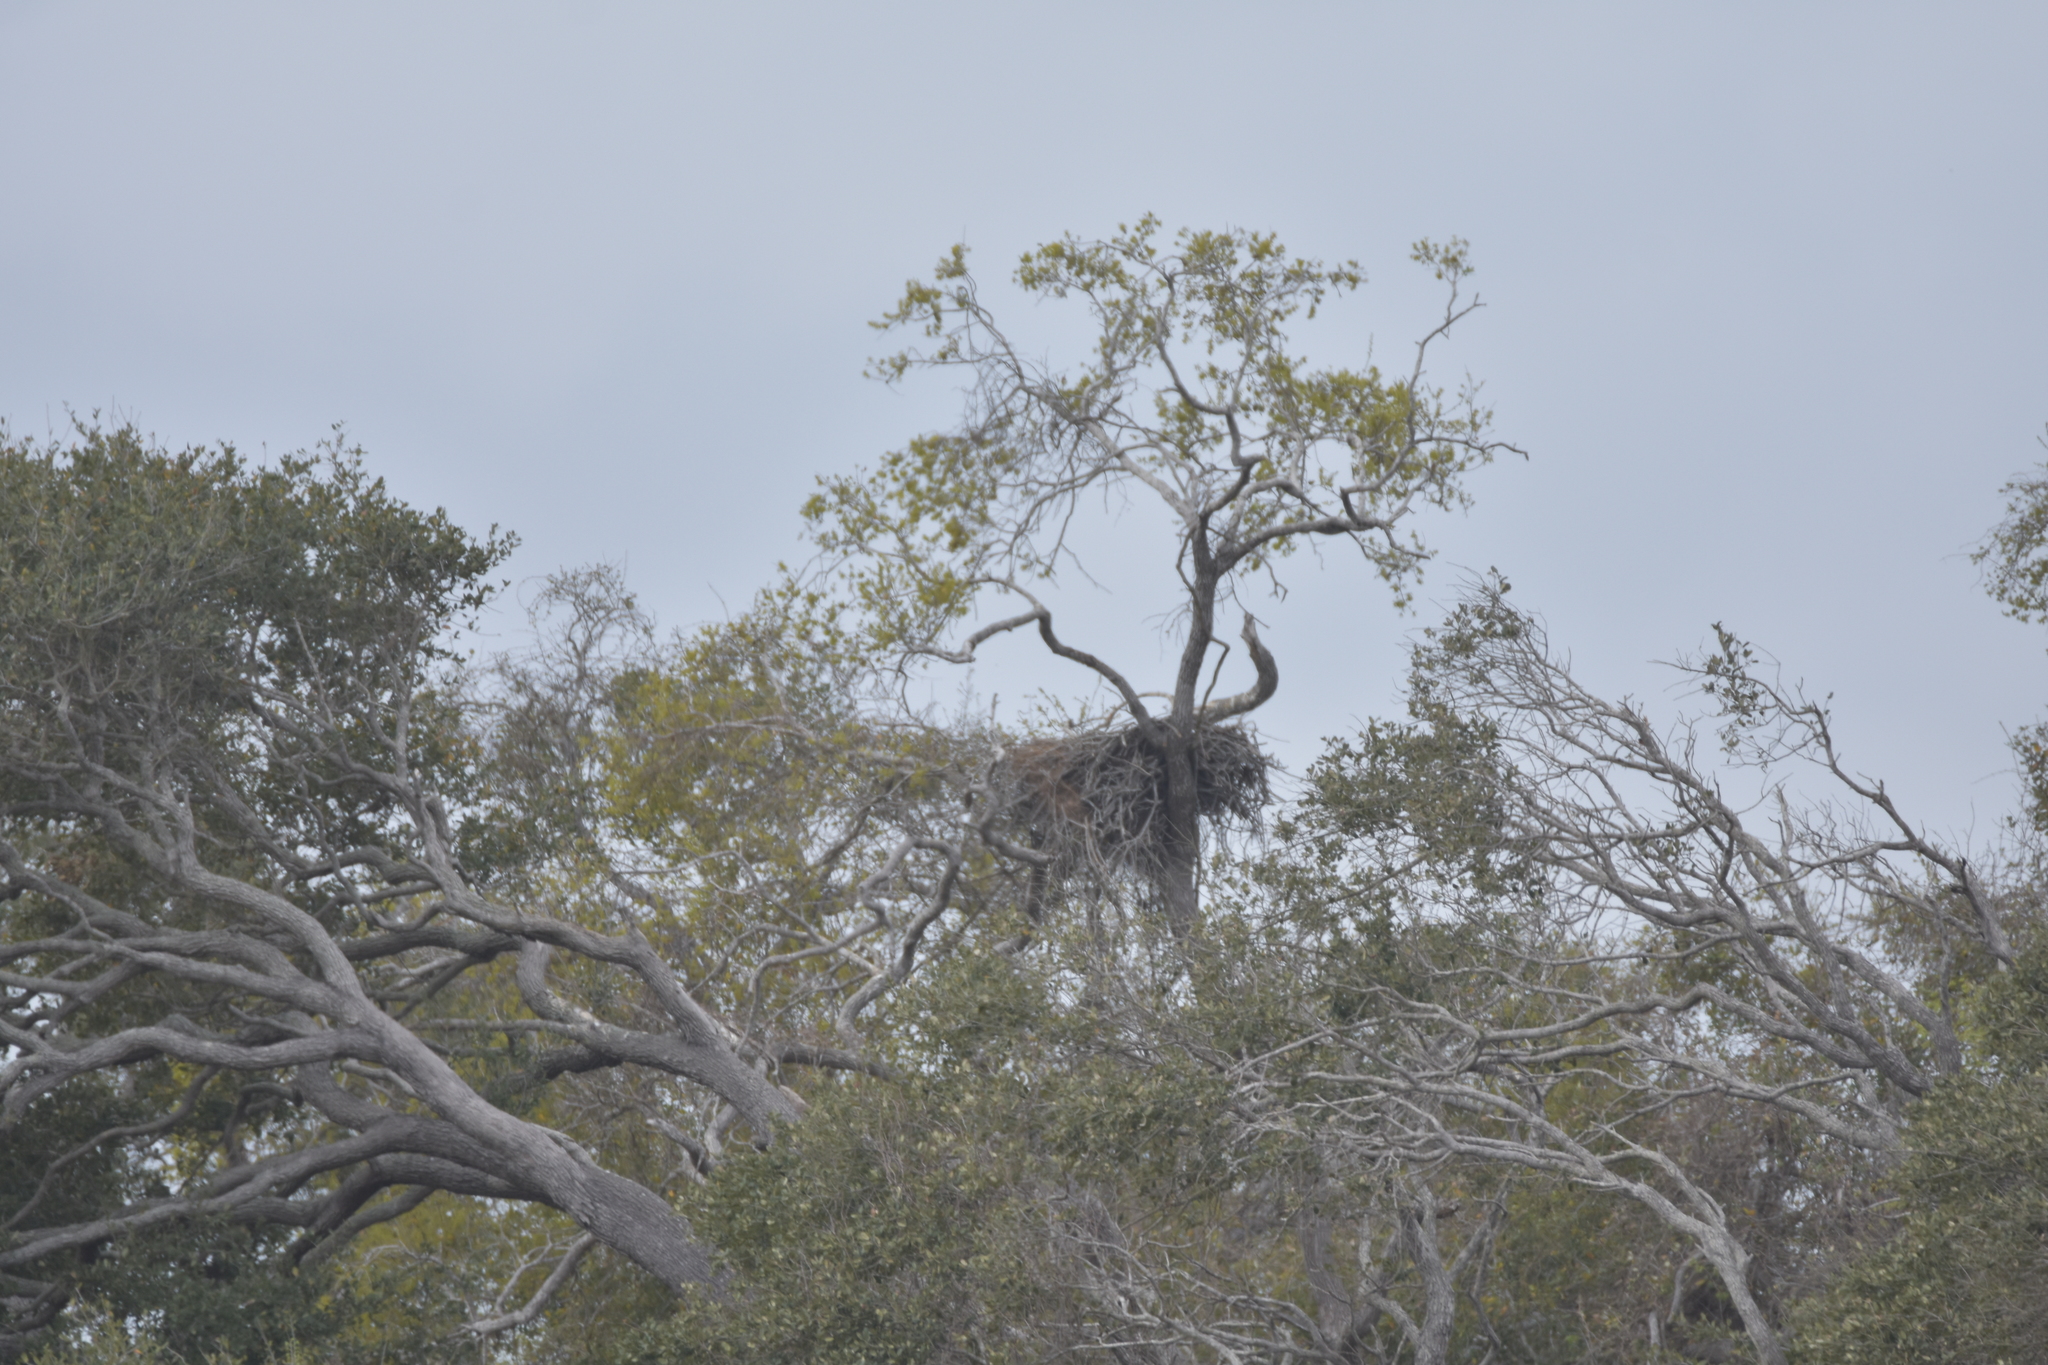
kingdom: Animalia
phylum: Chordata
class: Aves
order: Accipitriformes
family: Accipitridae
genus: Haliaeetus
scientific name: Haliaeetus leucocephalus
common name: Bald eagle
